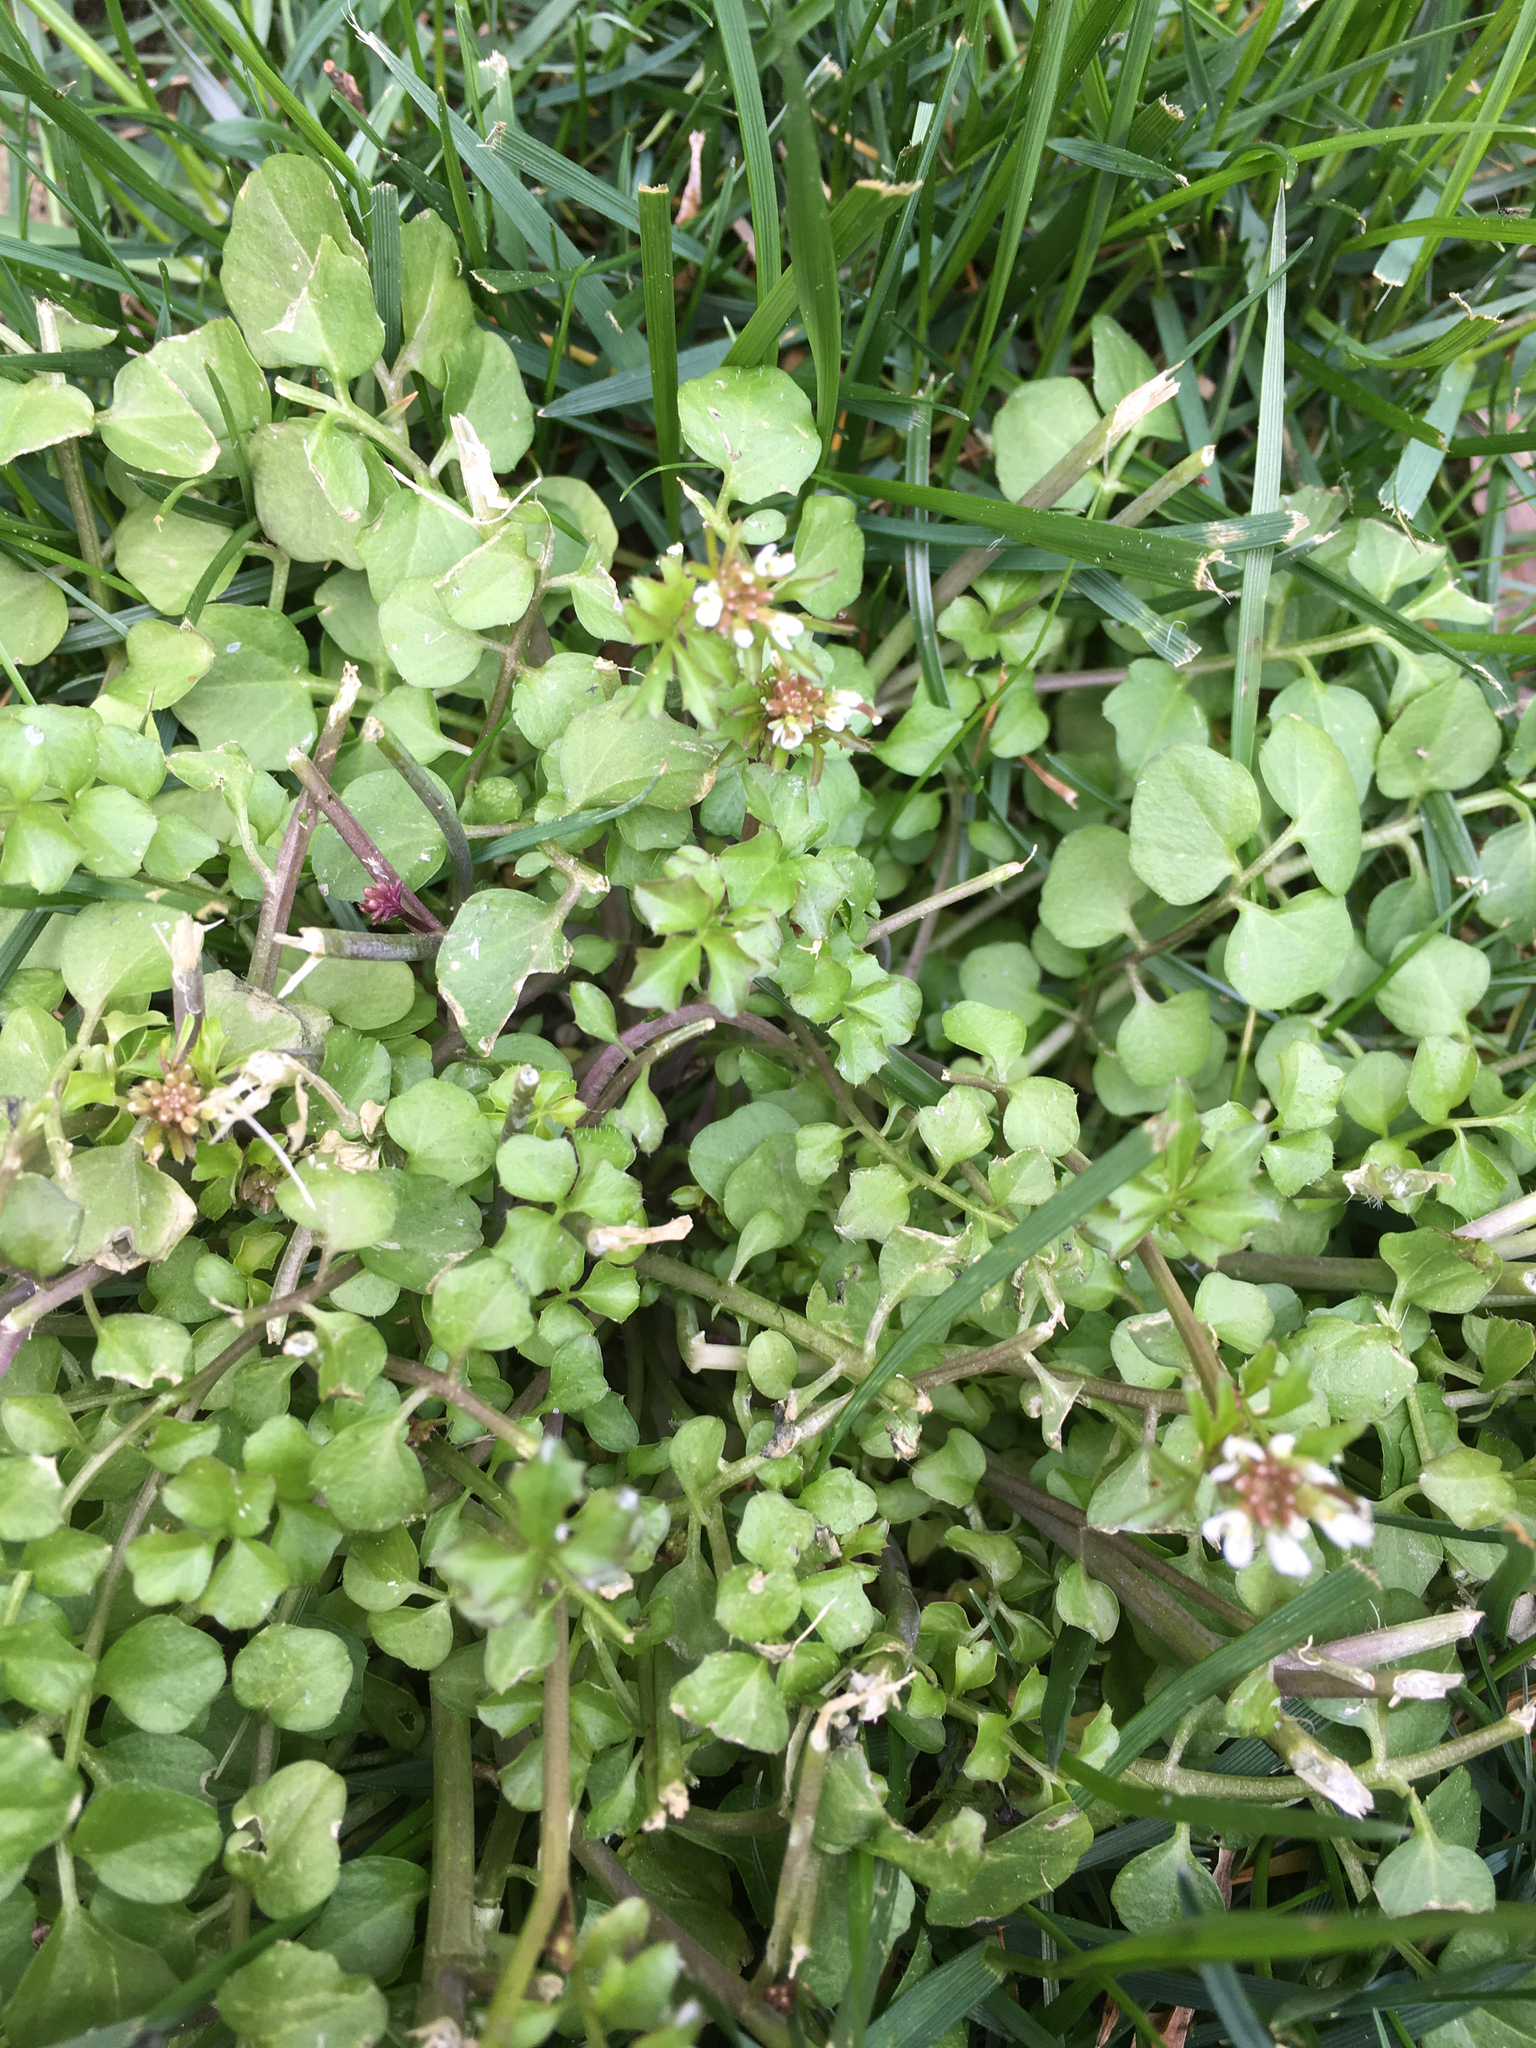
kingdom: Plantae
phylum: Tracheophyta
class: Magnoliopsida
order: Brassicales
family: Brassicaceae
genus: Cardamine
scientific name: Cardamine hirsuta
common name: Hairy bittercress
